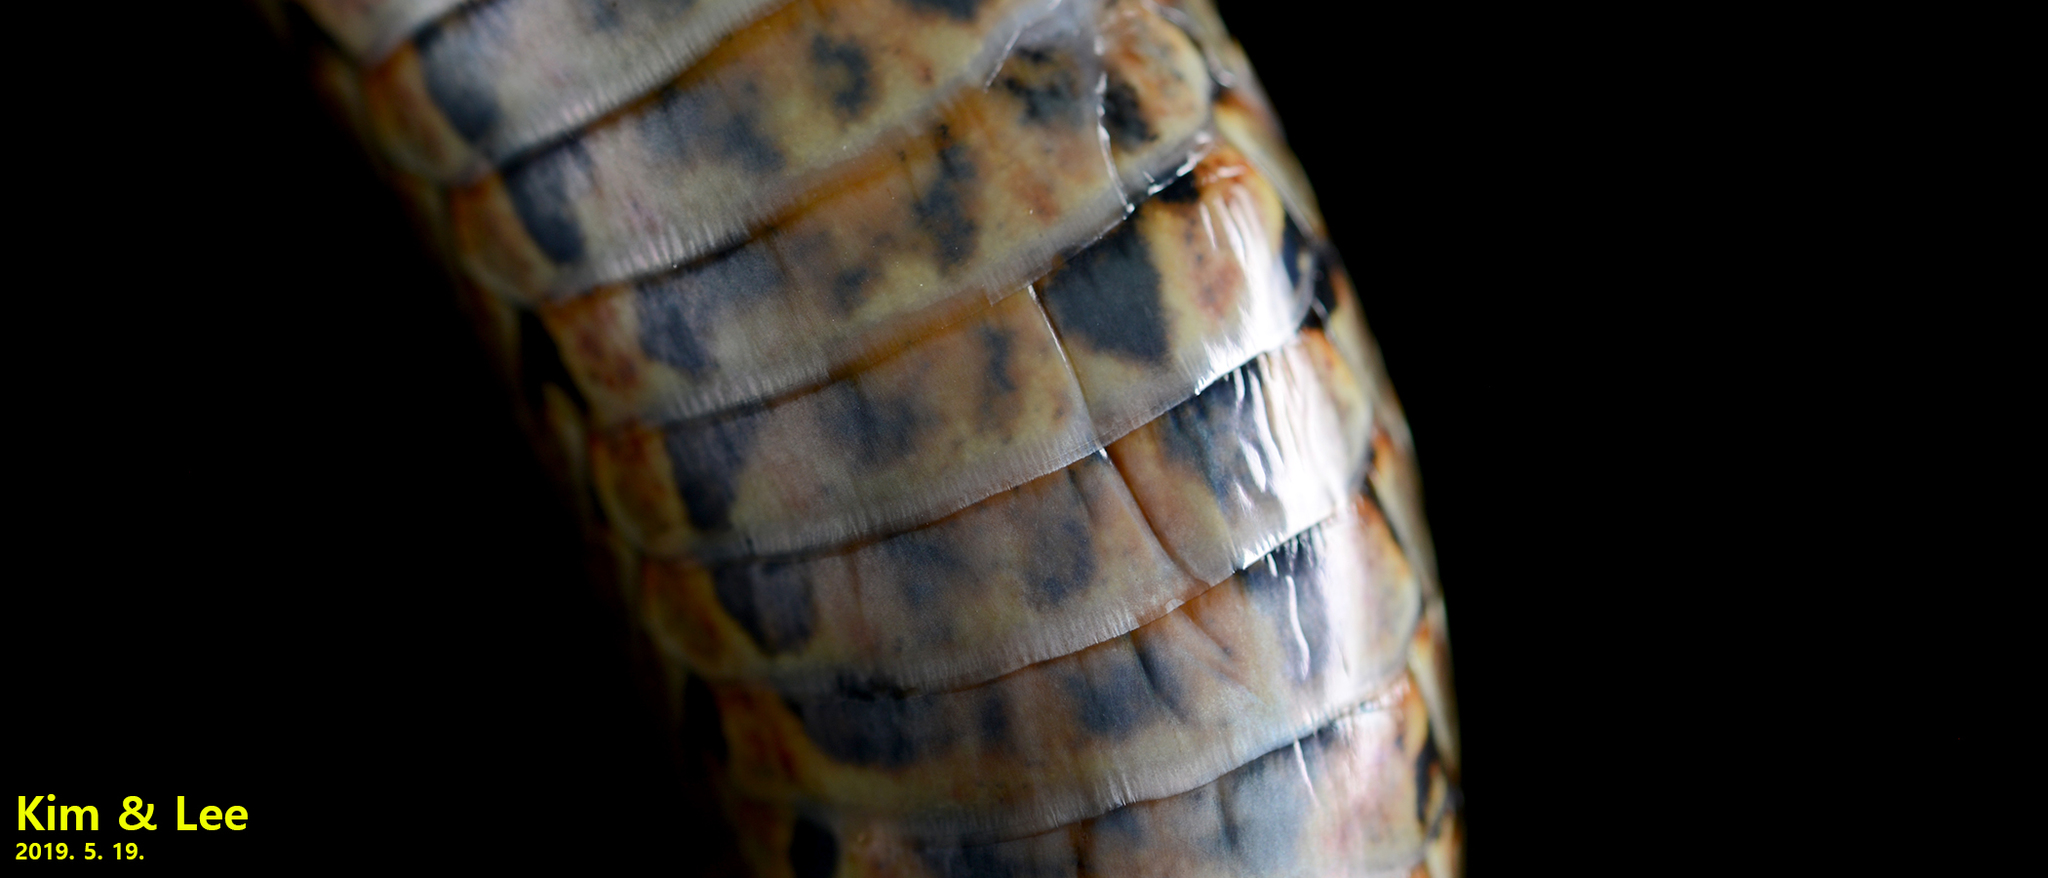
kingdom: Animalia
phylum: Chordata
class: Squamata
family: Colubridae
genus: Elaphe
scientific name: Elaphe dione
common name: Dione ratsnake
